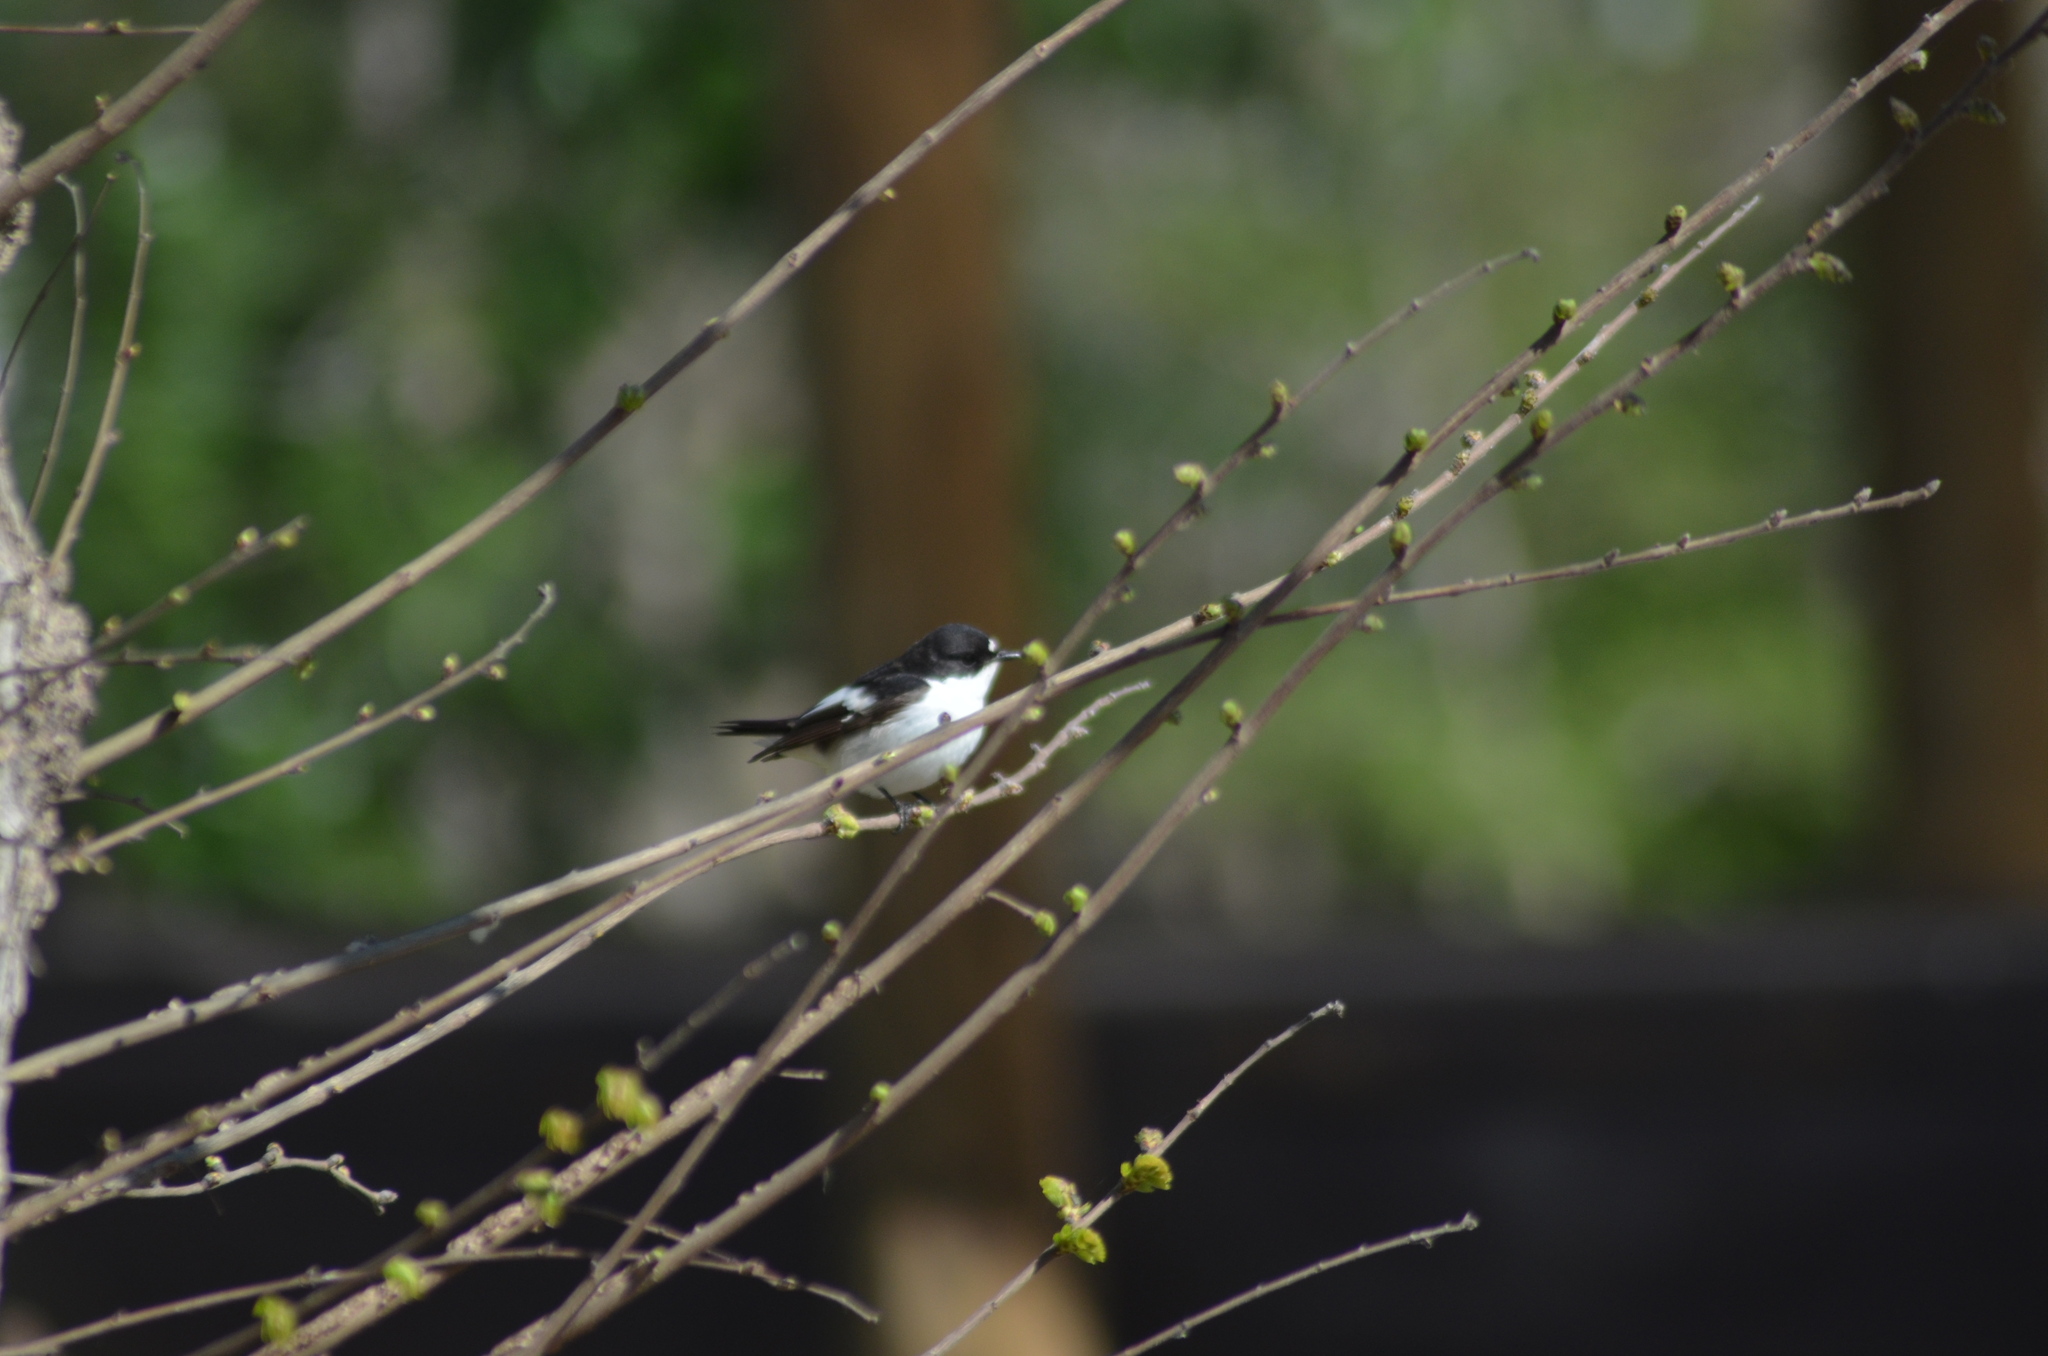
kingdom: Animalia
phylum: Chordata
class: Aves
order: Passeriformes
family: Muscicapidae
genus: Ficedula
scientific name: Ficedula hypoleuca
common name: European pied flycatcher
